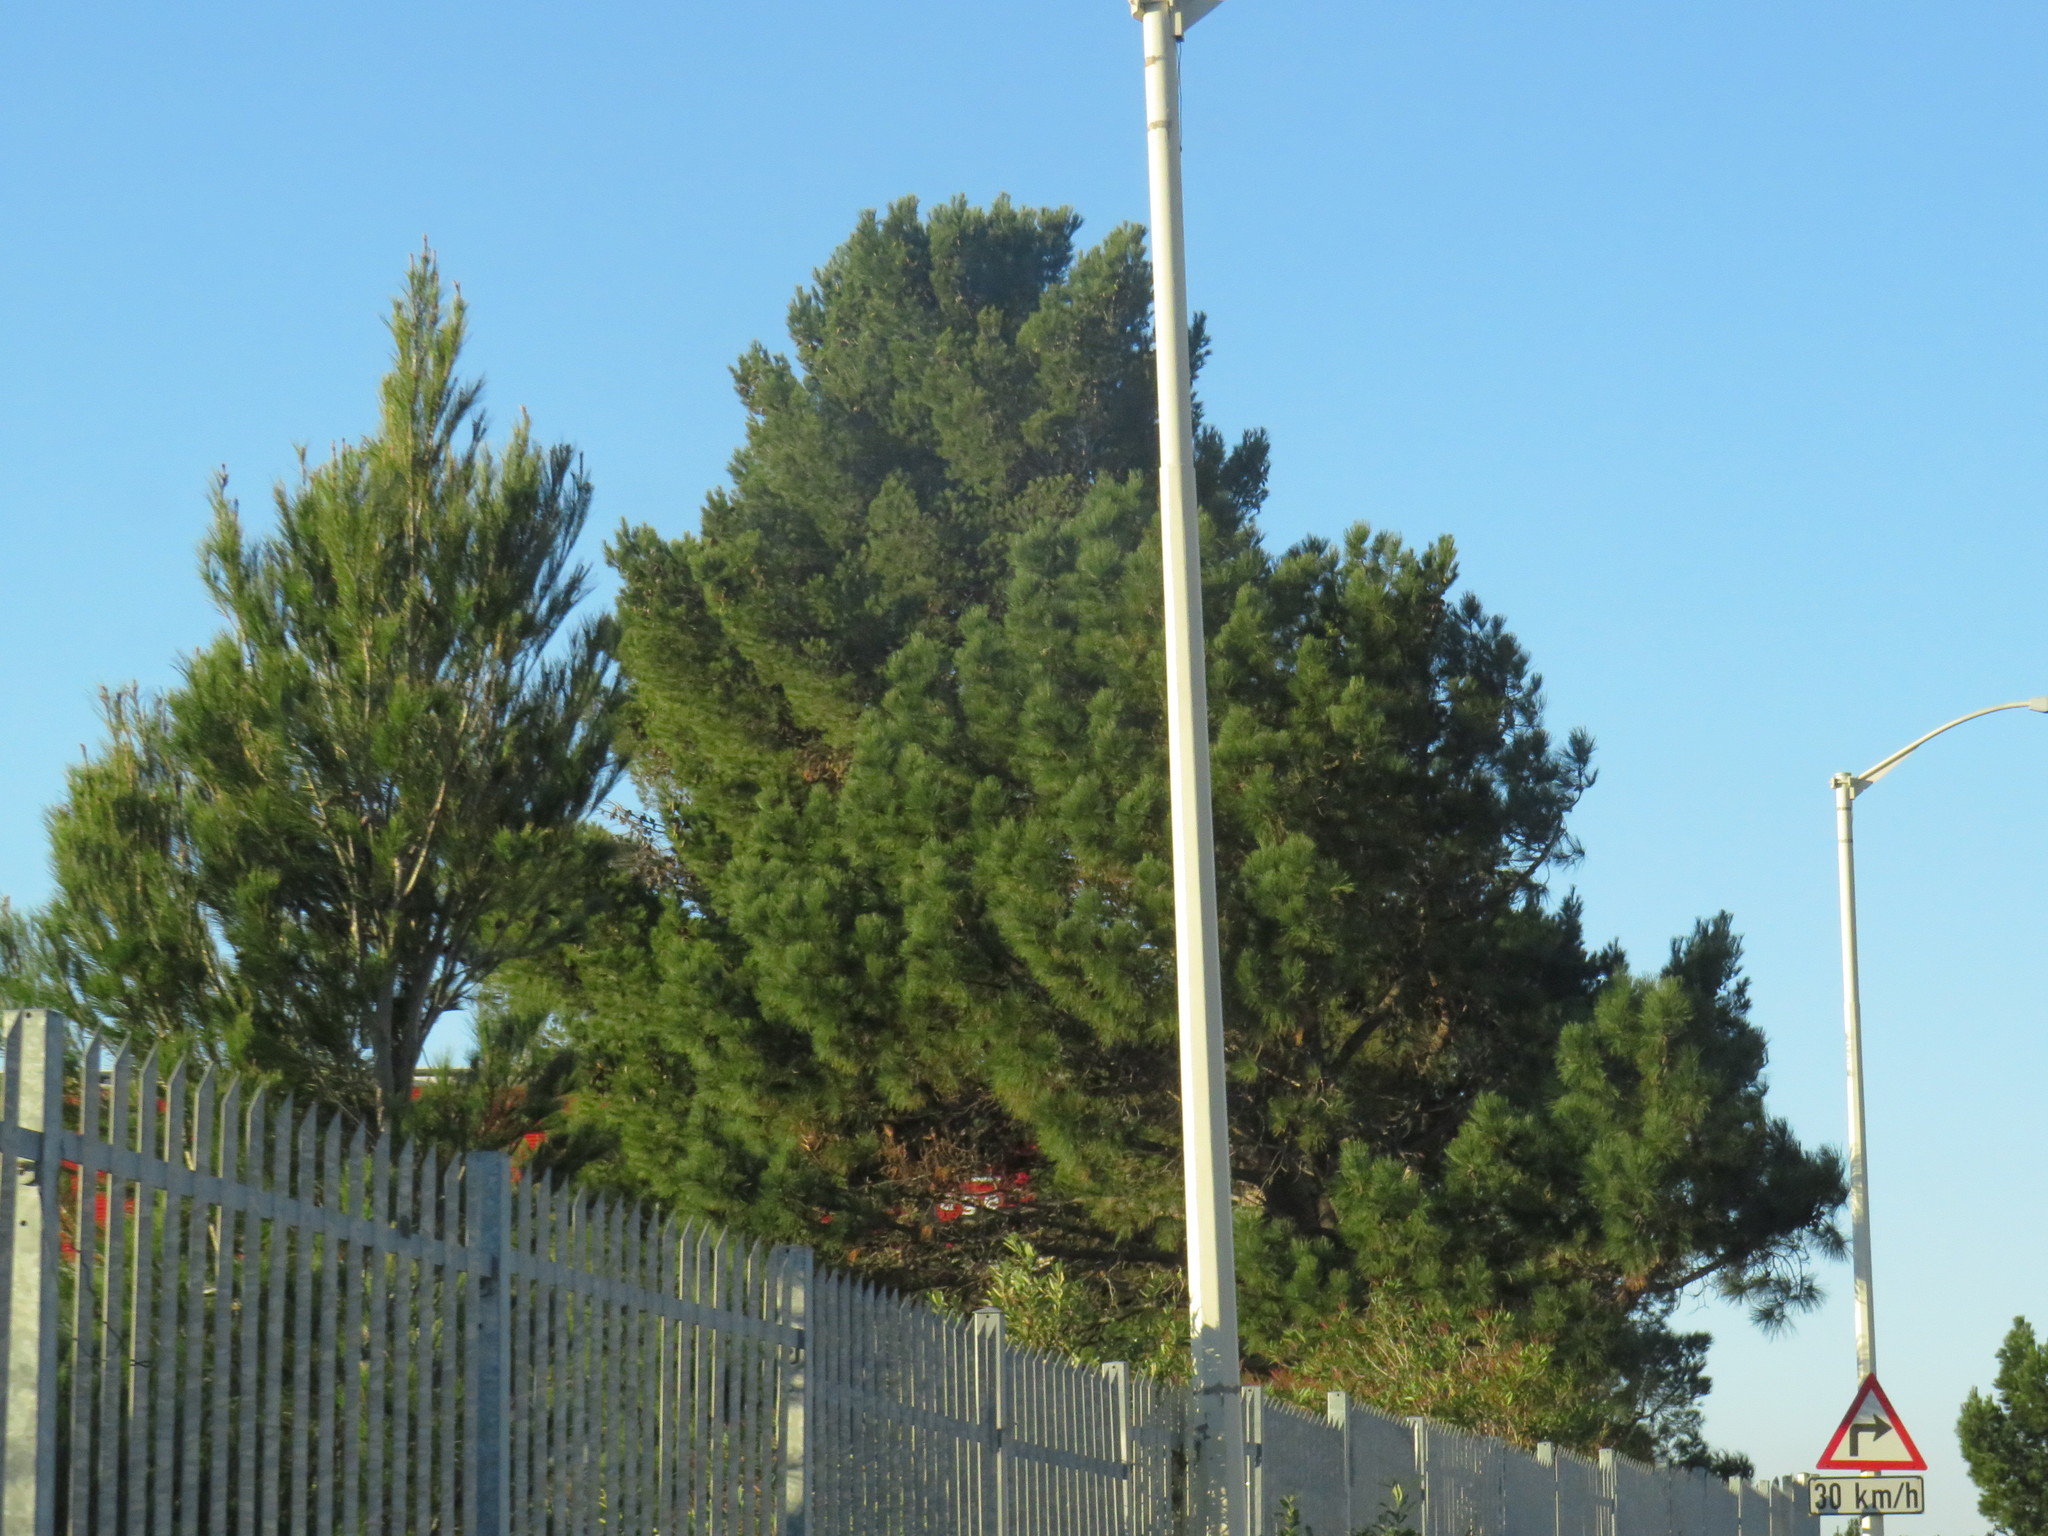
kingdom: Plantae
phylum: Tracheophyta
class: Pinopsida
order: Pinales
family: Pinaceae
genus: Pinus
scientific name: Pinus halepensis
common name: Aleppo pine
